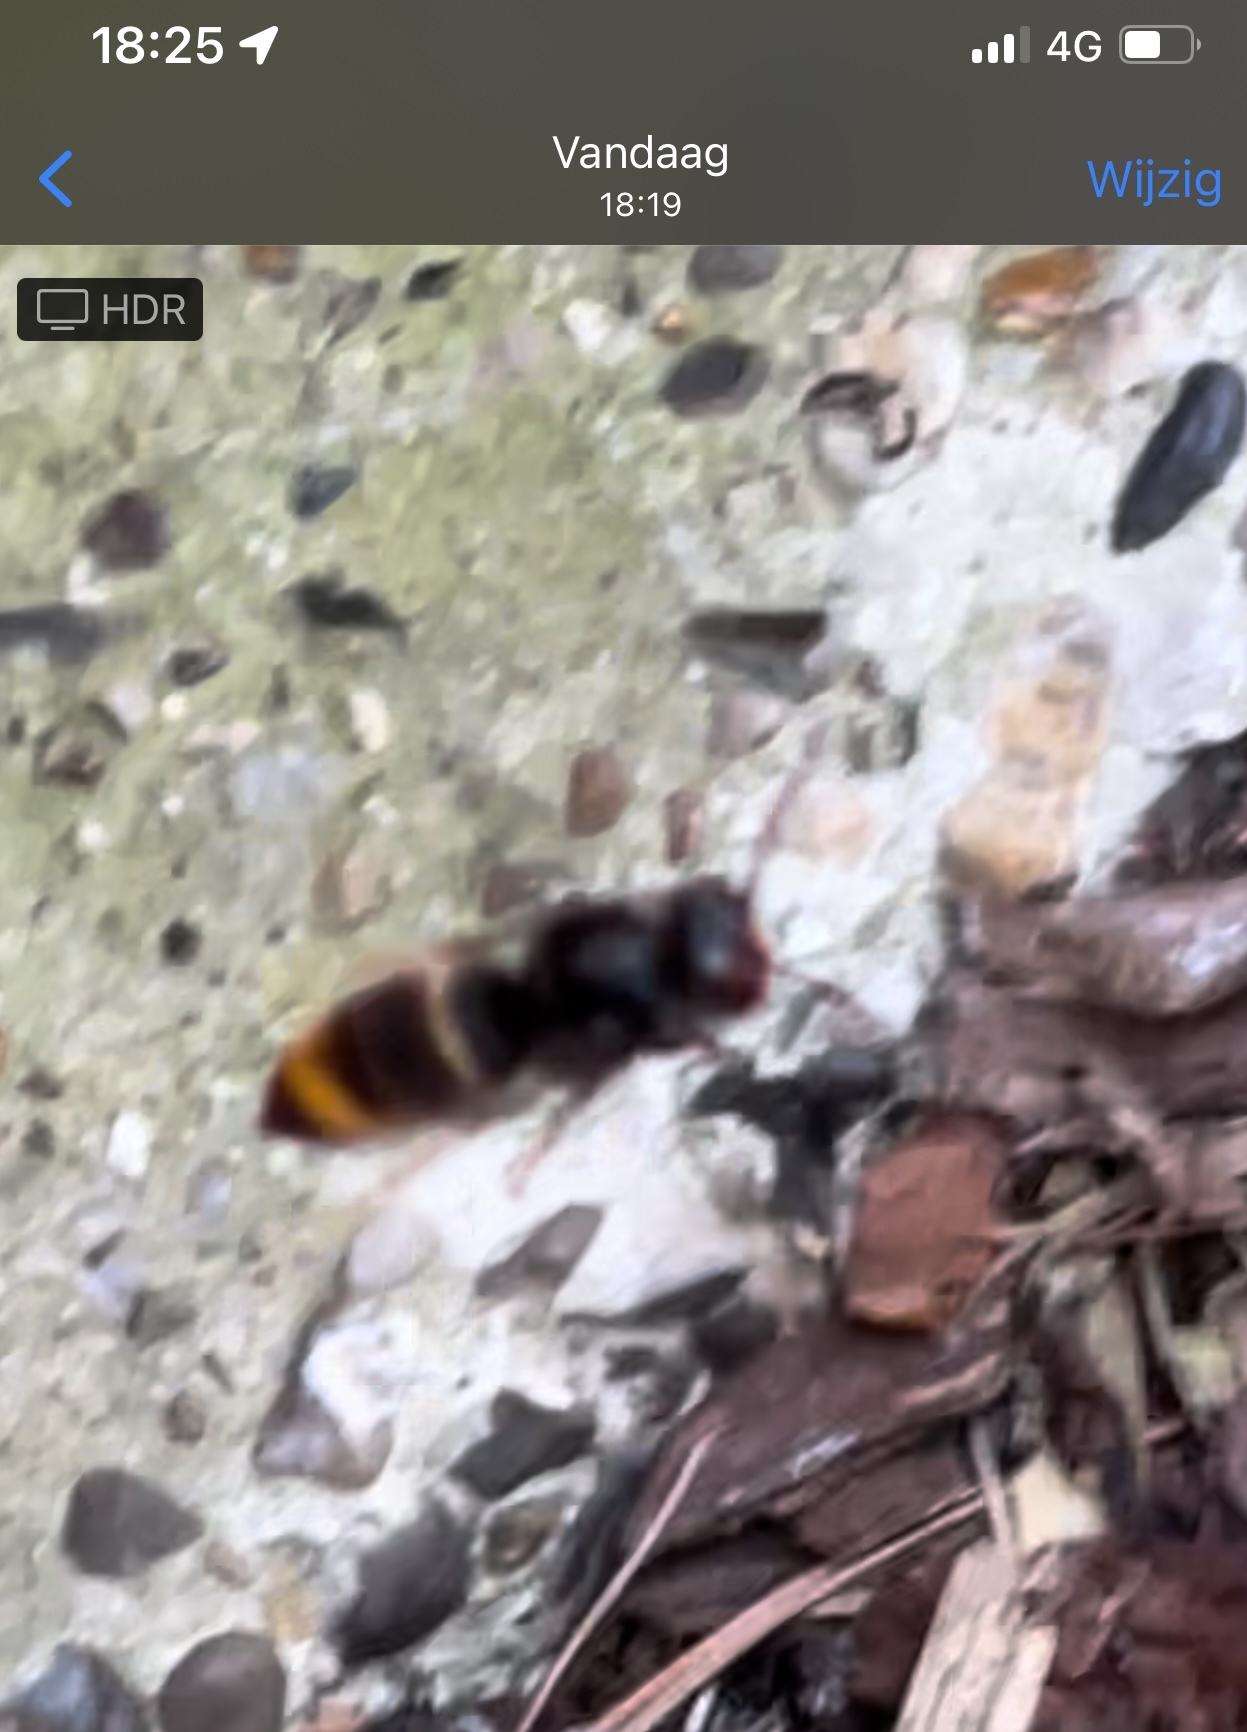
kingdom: Animalia
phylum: Arthropoda
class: Insecta
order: Hymenoptera
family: Vespidae
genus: Vespa
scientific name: Vespa velutina
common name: Asian hornet
